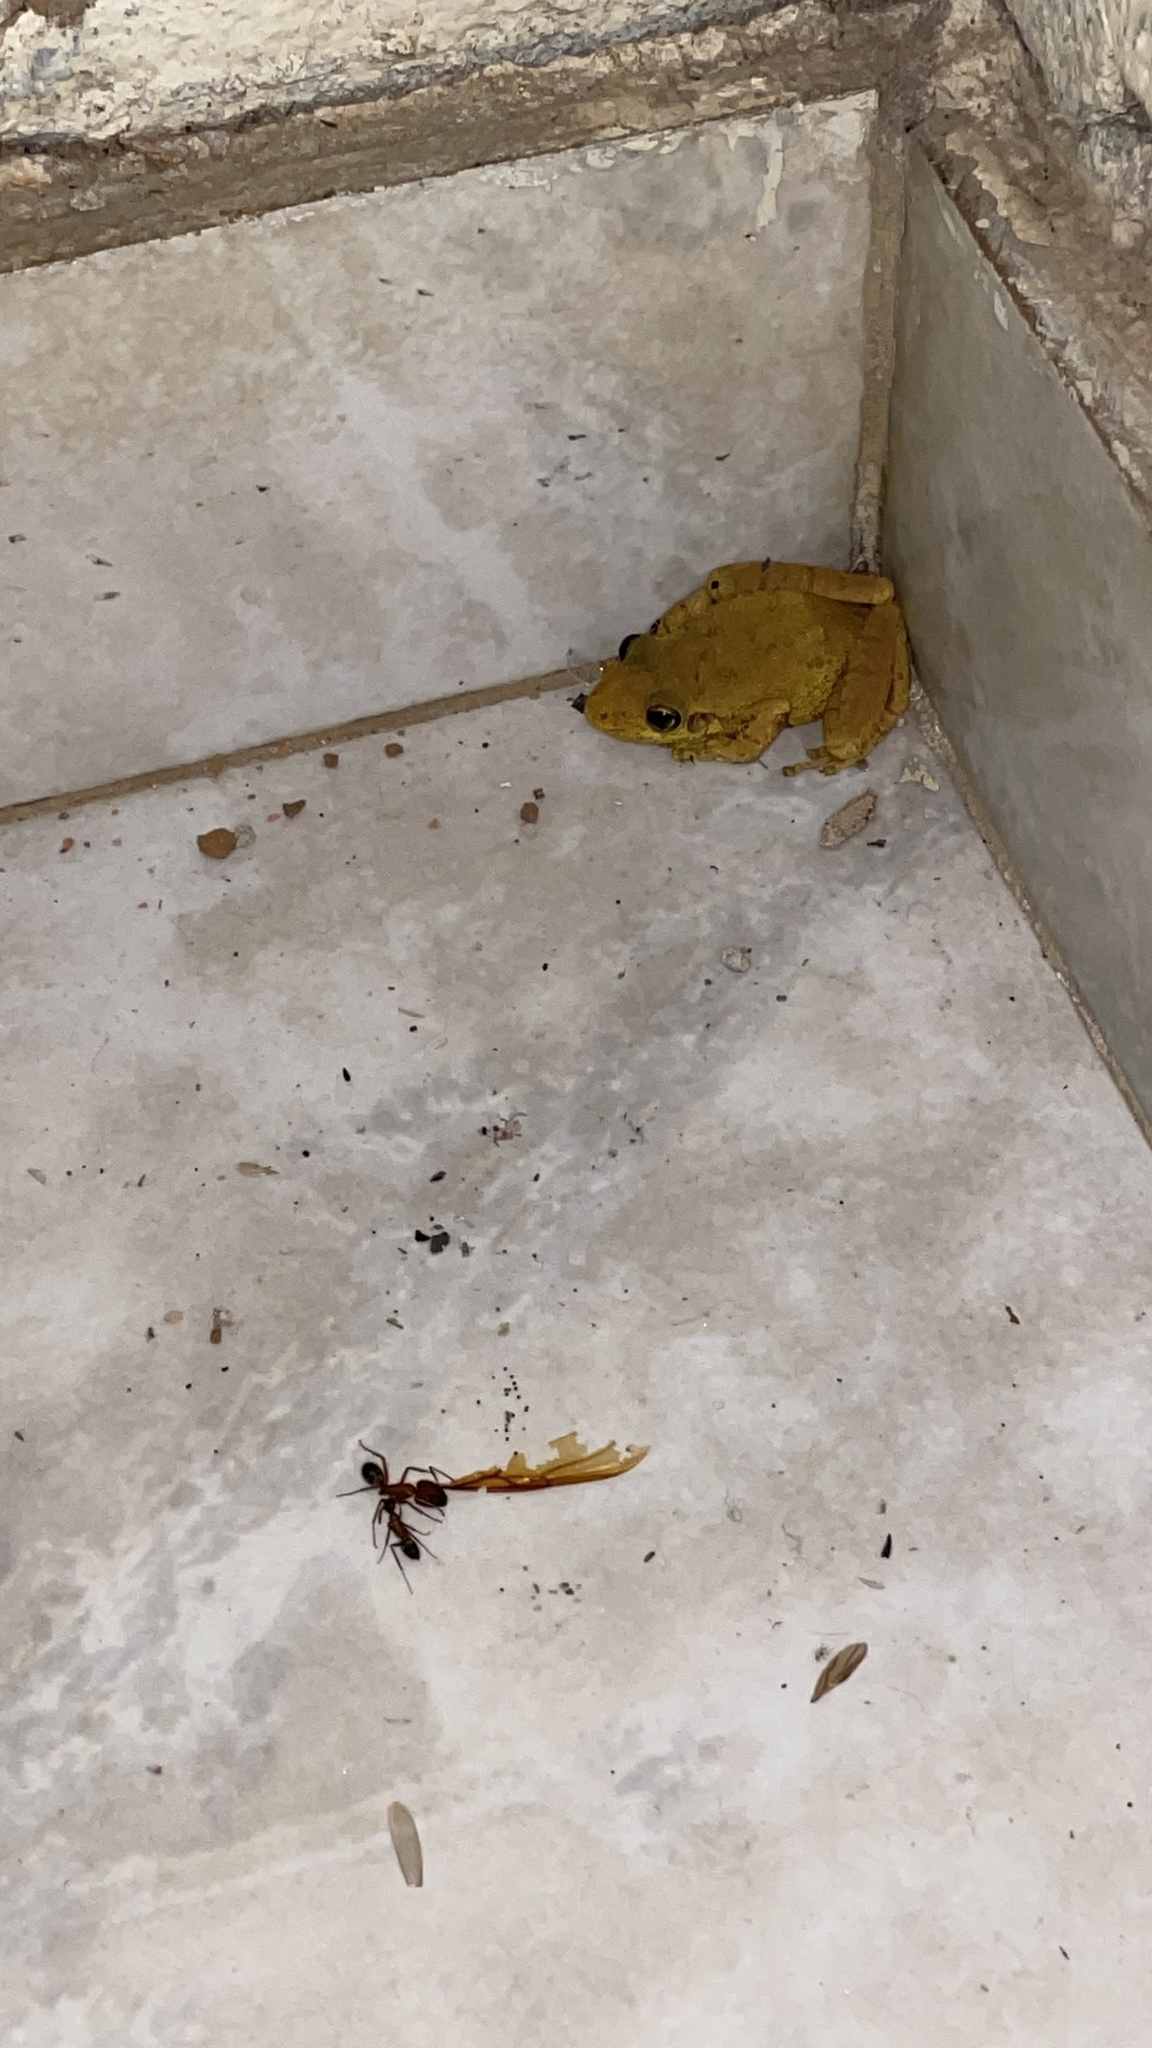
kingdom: Animalia
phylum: Chordata
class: Amphibia
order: Anura
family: Hylidae
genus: Scinax
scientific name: Scinax fuscovarius
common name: Fuscous-blotched treefrog
